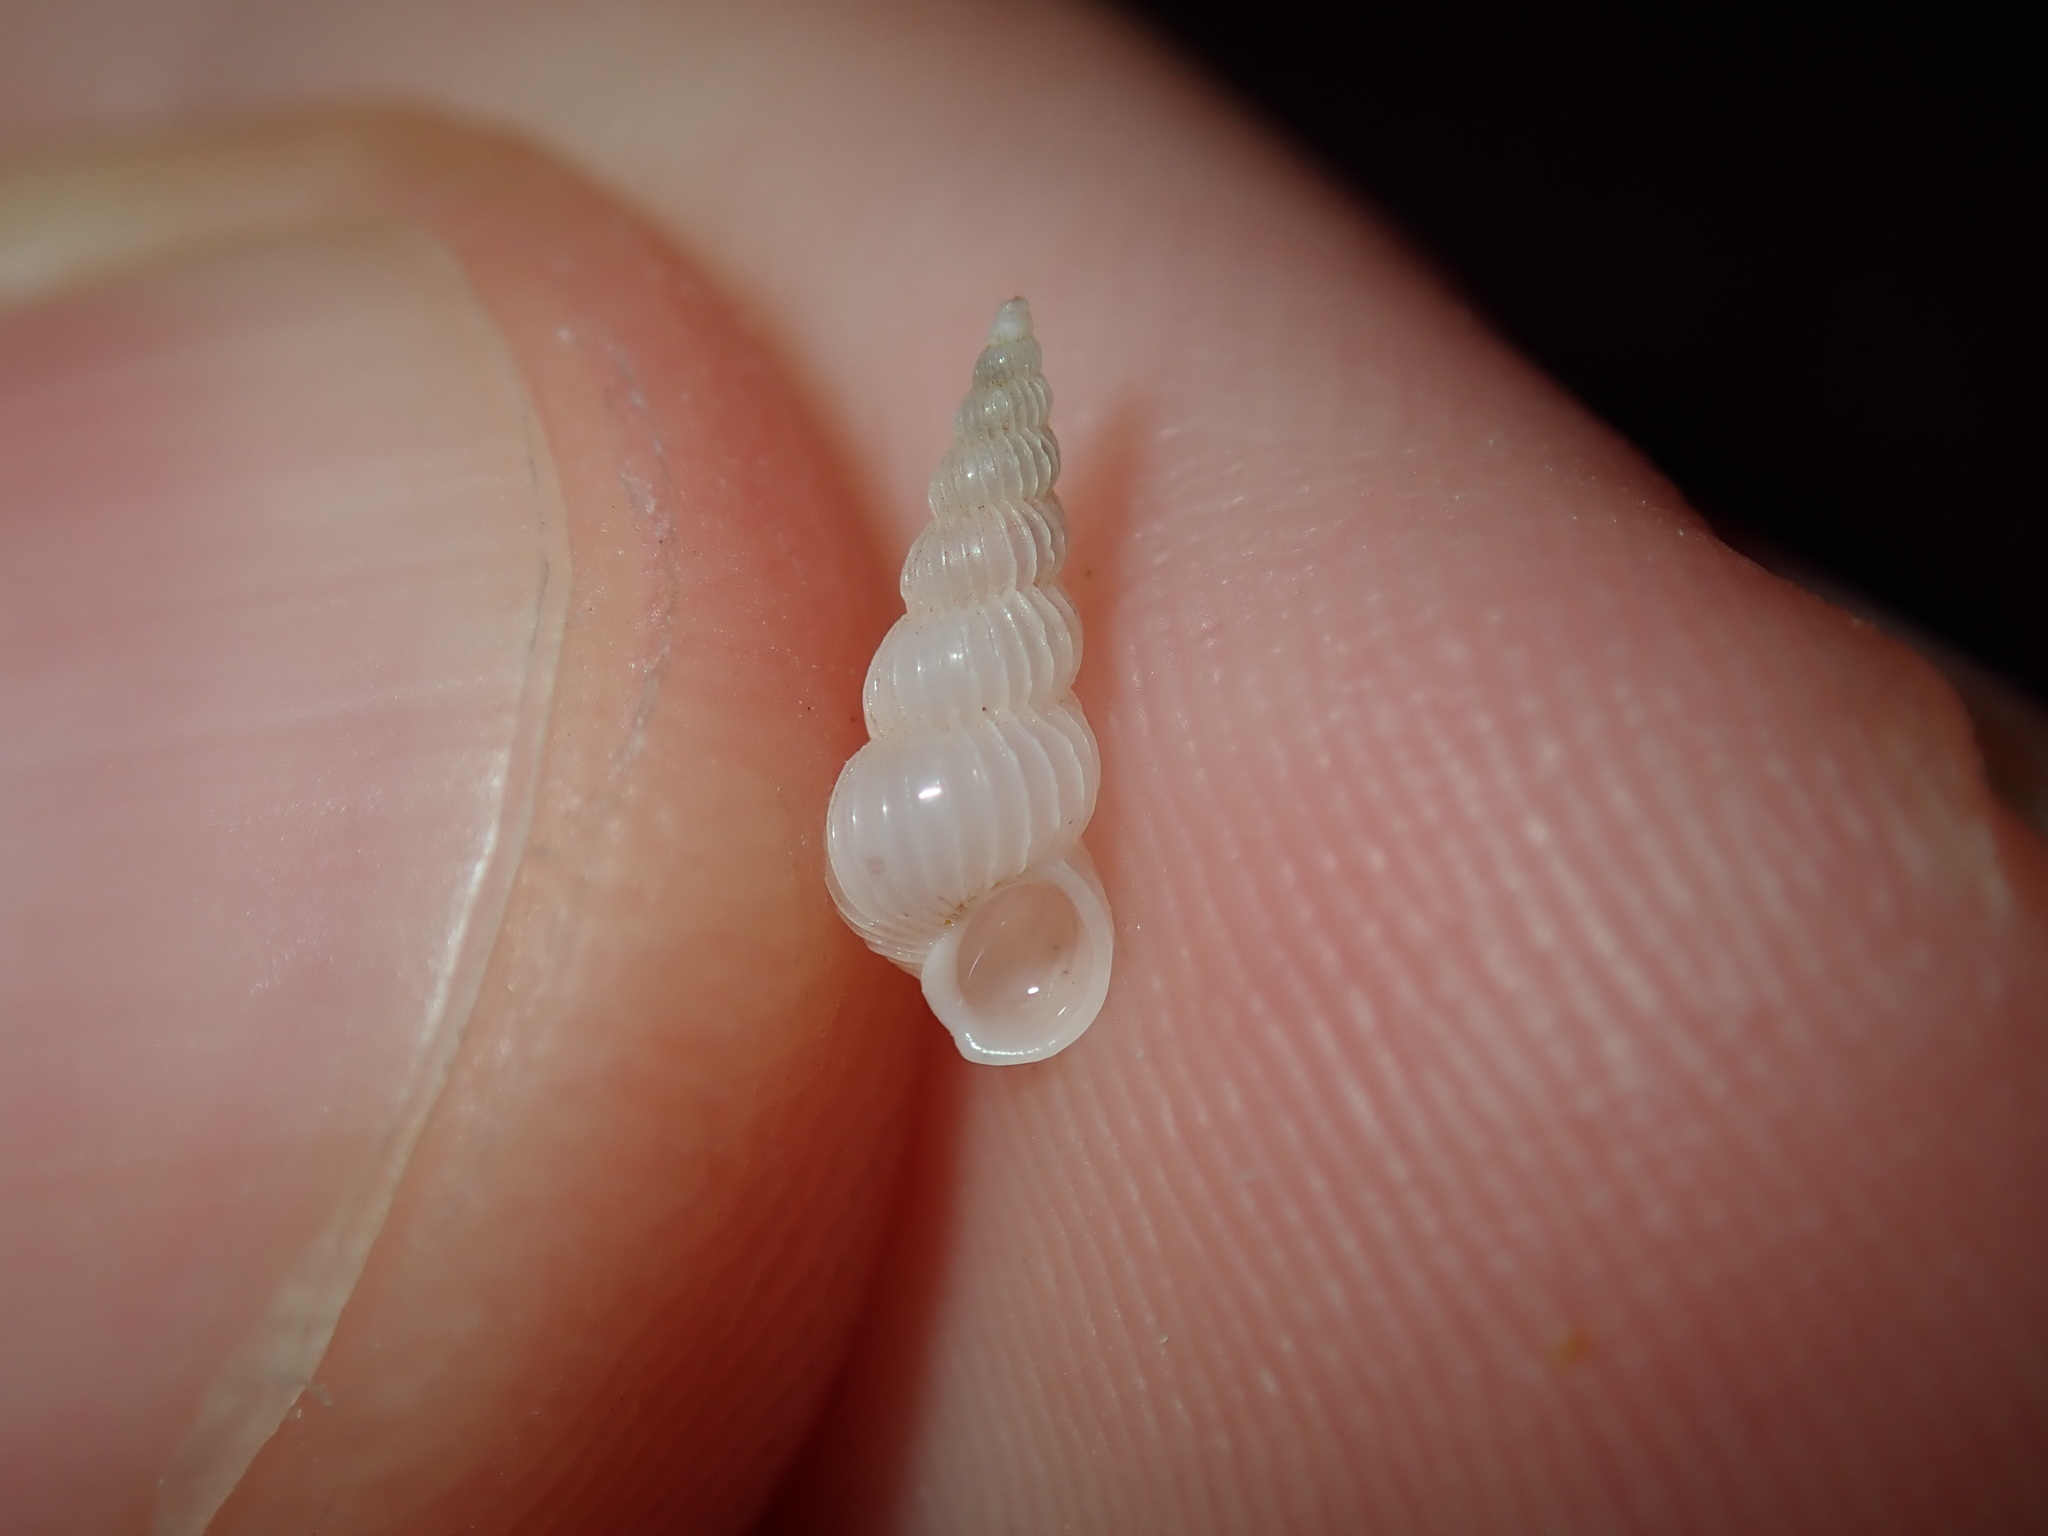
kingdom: Animalia
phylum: Mollusca
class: Gastropoda
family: Epitoniidae
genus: Epitonium
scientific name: Epitonium jukesianum
